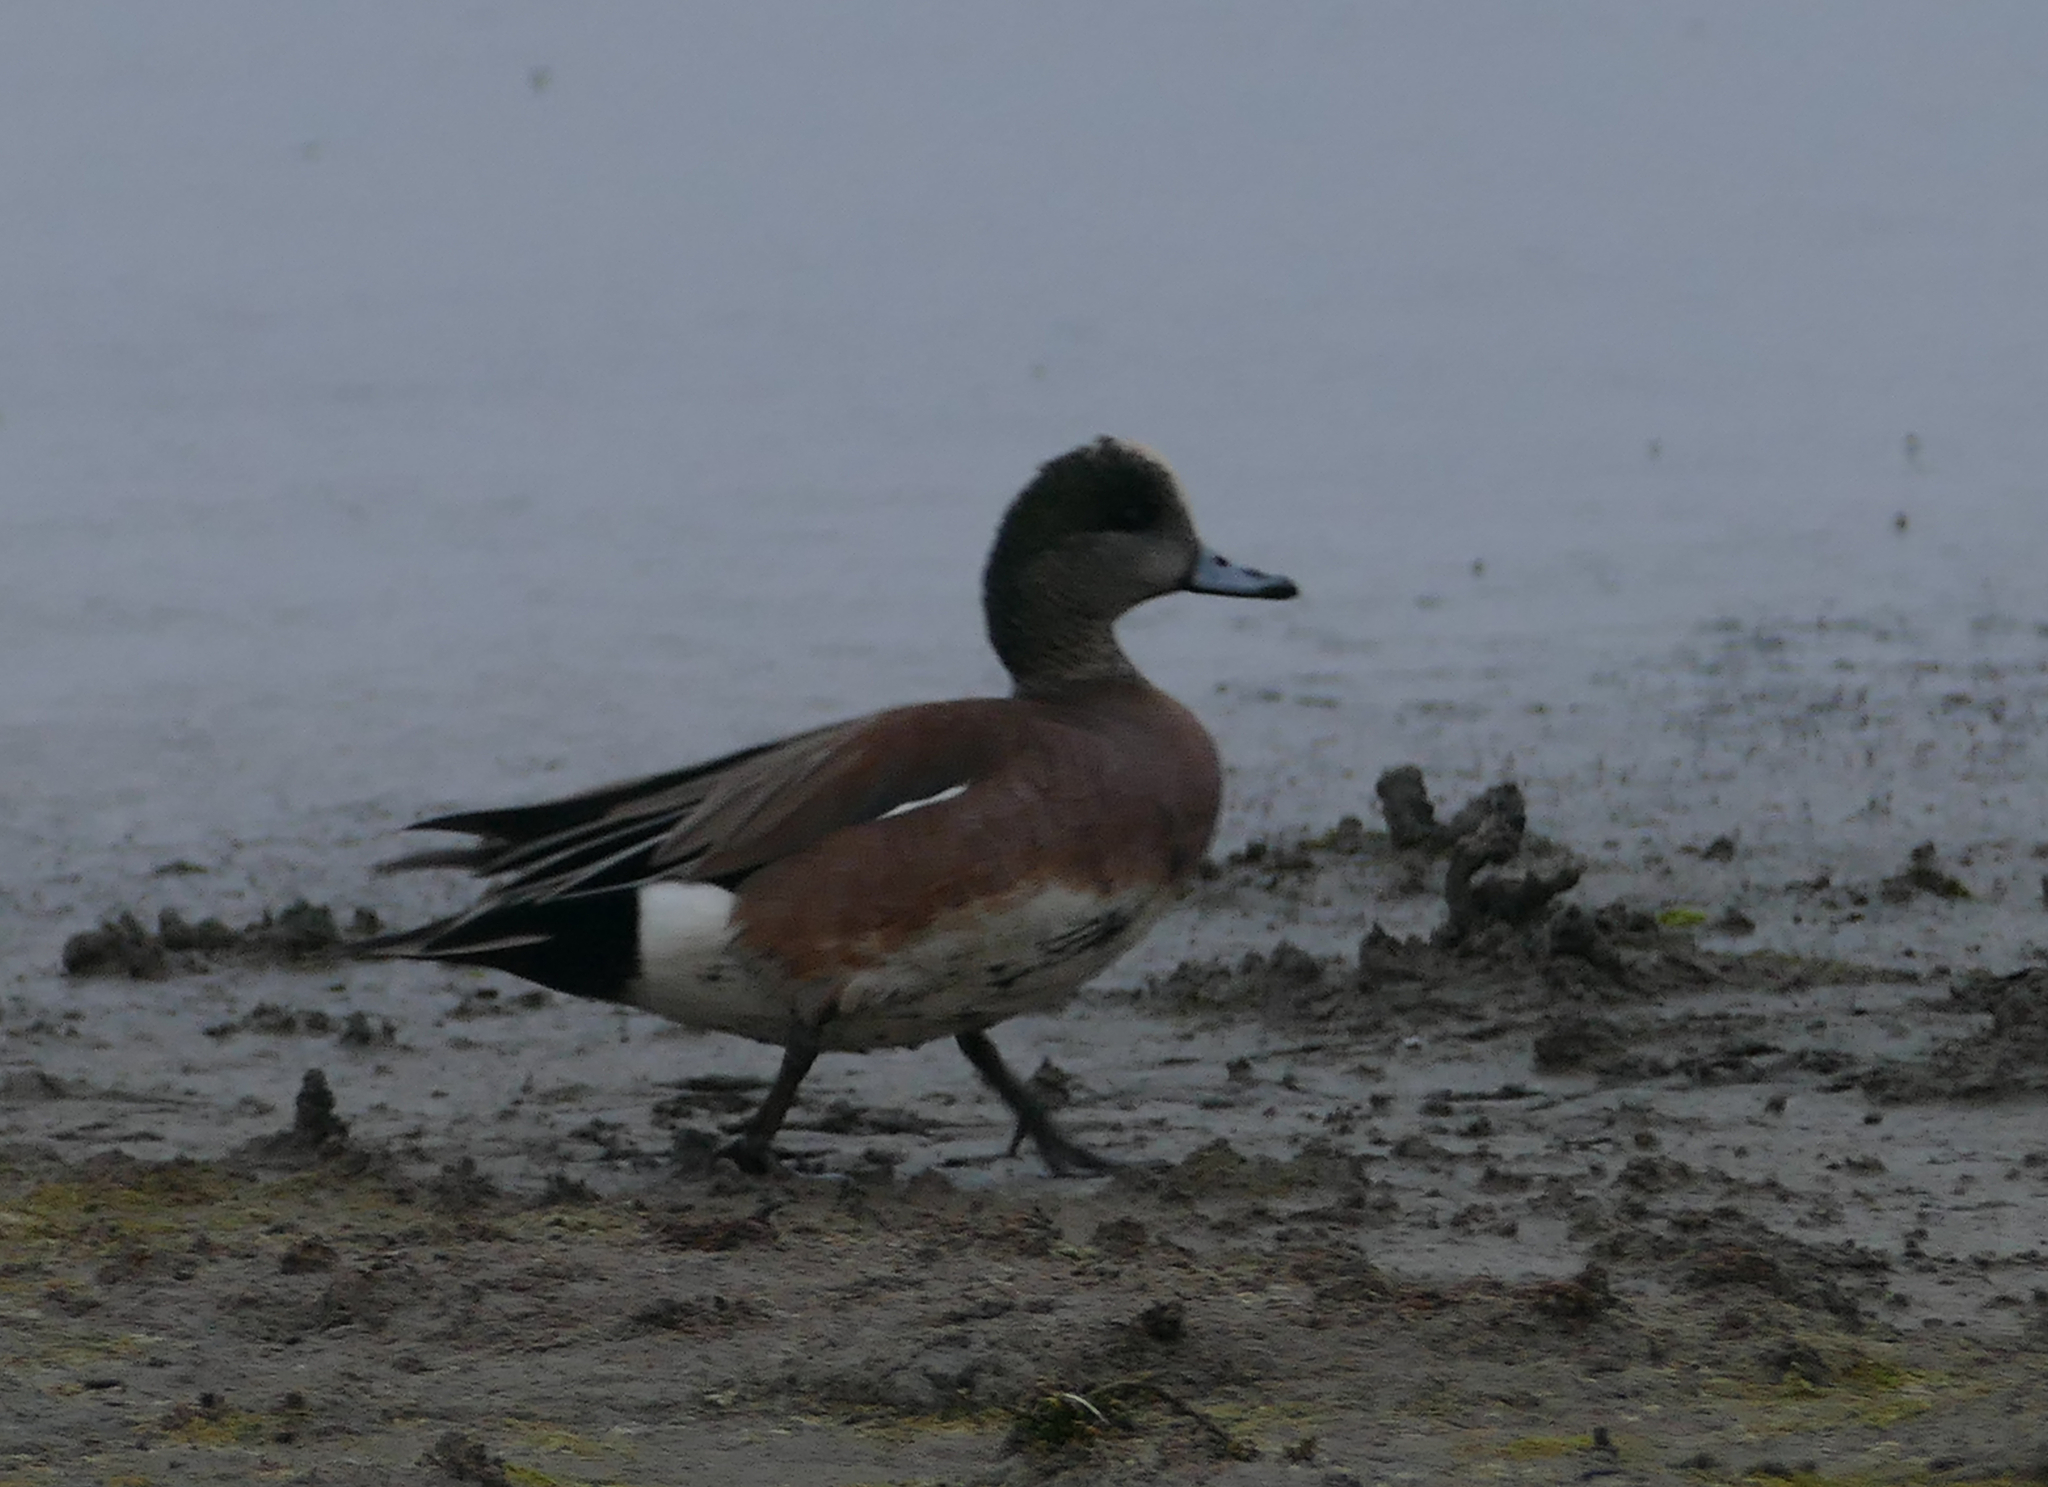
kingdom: Animalia
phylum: Chordata
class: Aves
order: Anseriformes
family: Anatidae
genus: Mareca
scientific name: Mareca americana
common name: American wigeon
